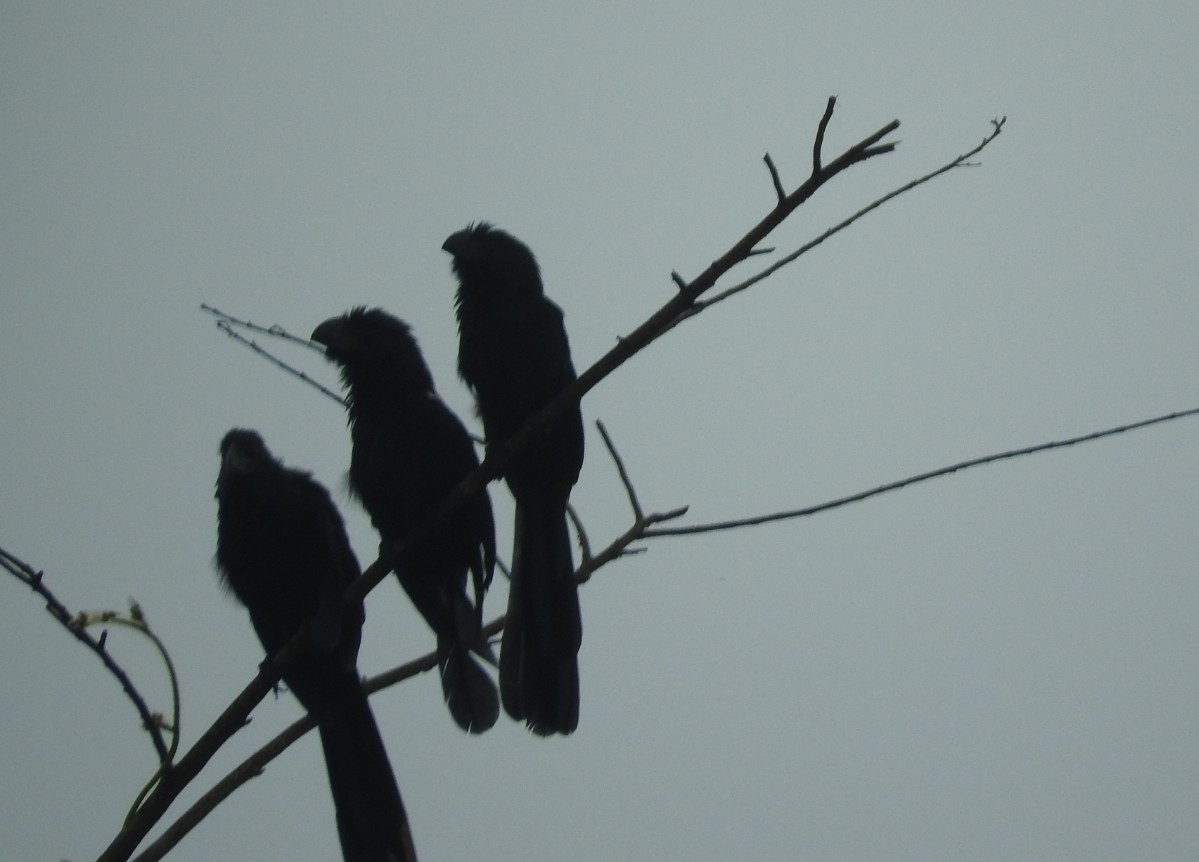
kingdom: Animalia
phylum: Chordata
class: Aves
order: Cuculiformes
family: Cuculidae
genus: Crotophaga
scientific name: Crotophaga sulcirostris
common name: Groove-billed ani
